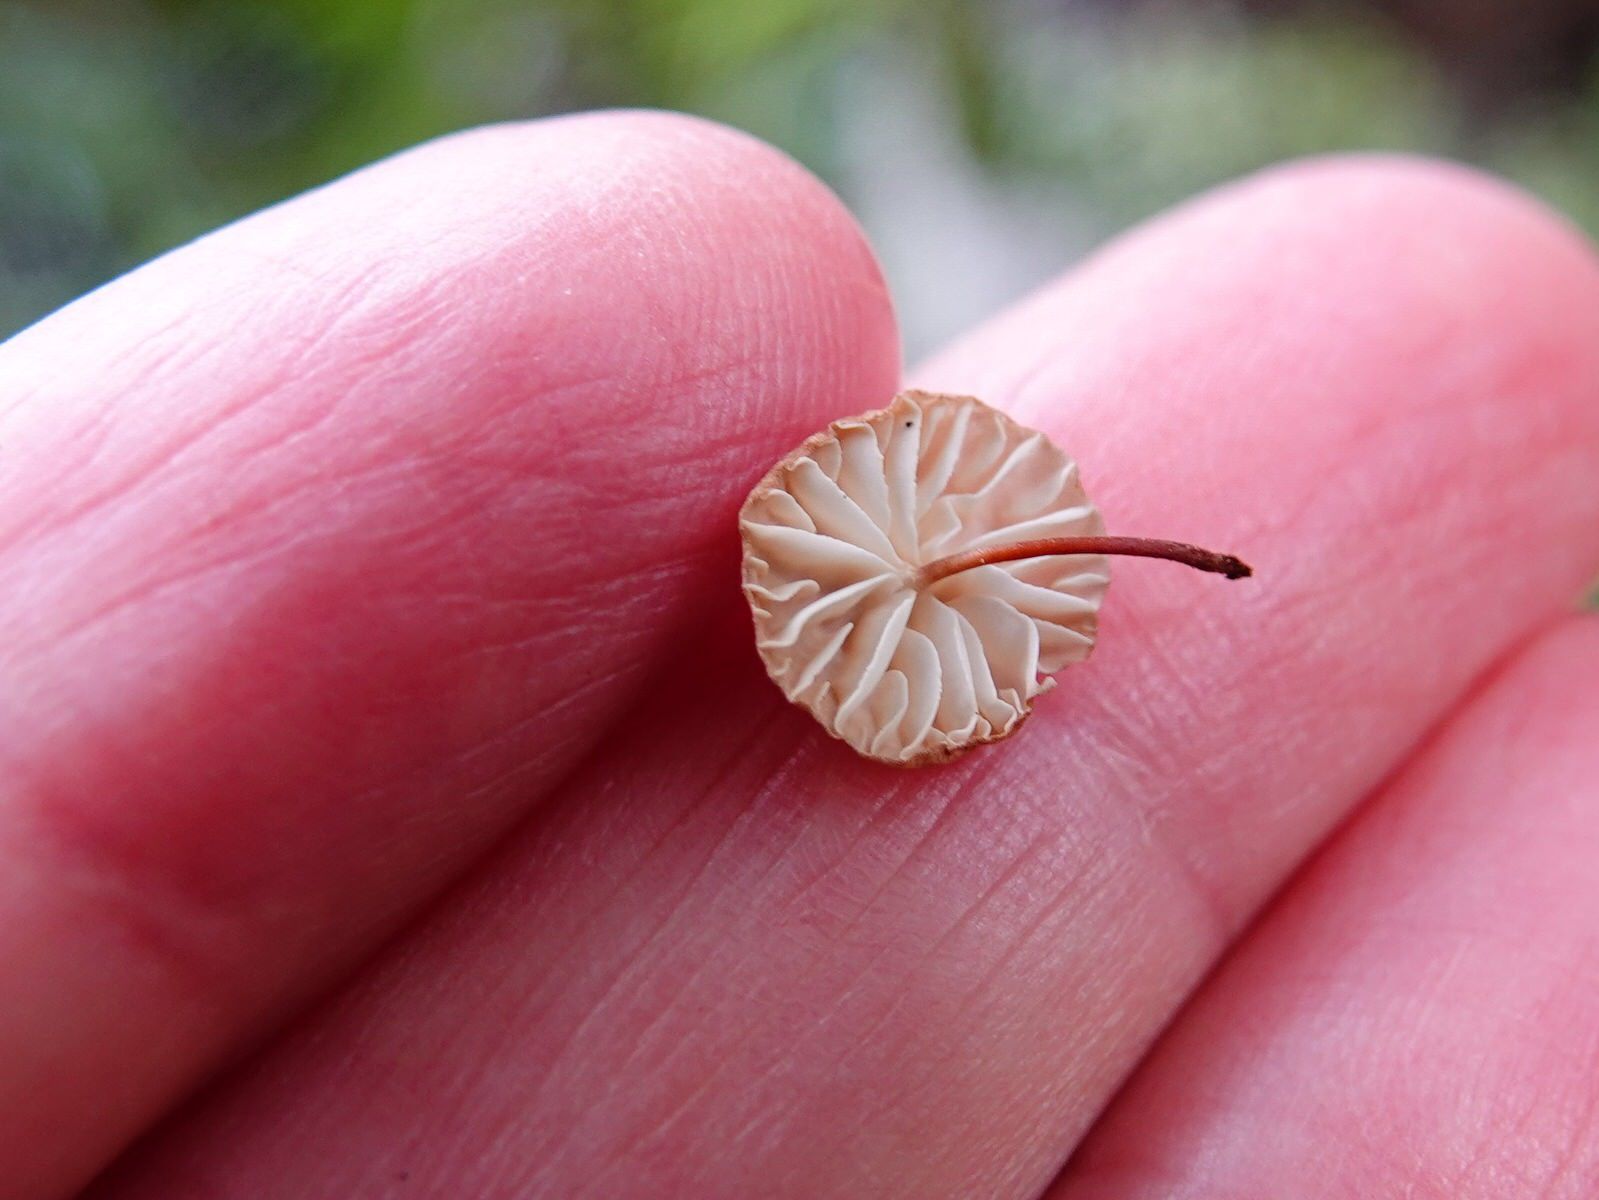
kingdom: Fungi
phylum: Basidiomycota
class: Agaricomycetes
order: Agaricales
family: Omphalotaceae
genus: Mycetinis
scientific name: Mycetinis curraniae
